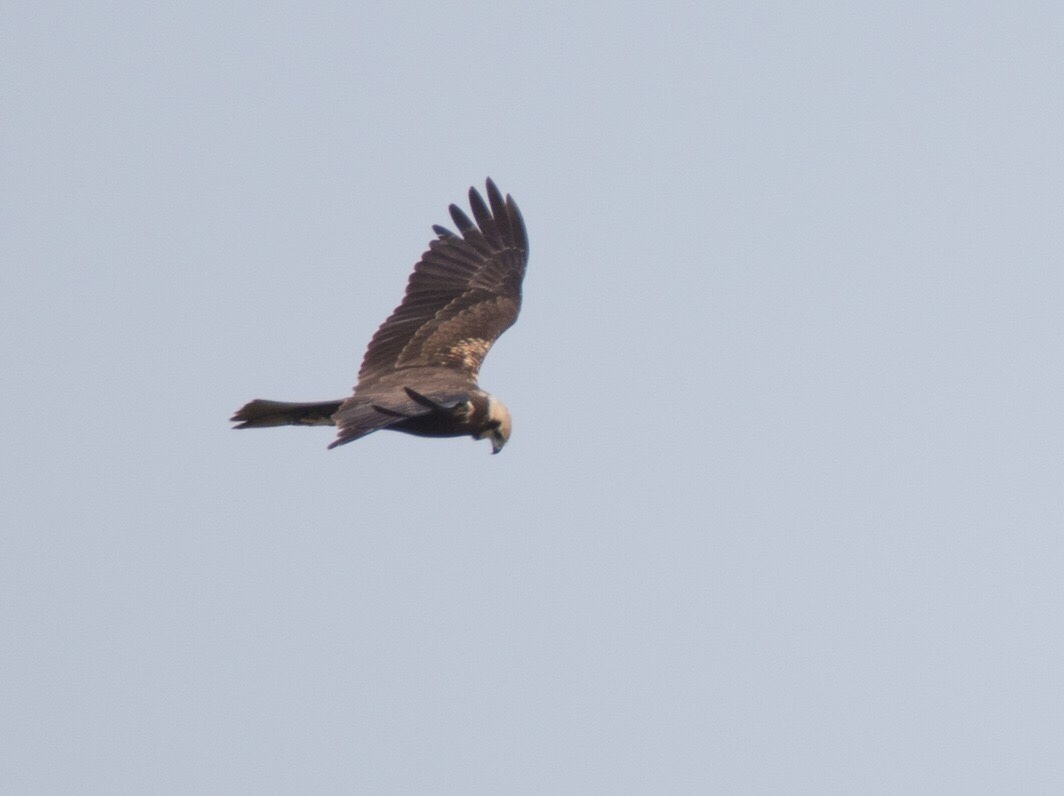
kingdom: Animalia
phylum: Chordata
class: Aves
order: Accipitriformes
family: Accipitridae
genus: Circus
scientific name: Circus aeruginosus
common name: Western marsh harrier
